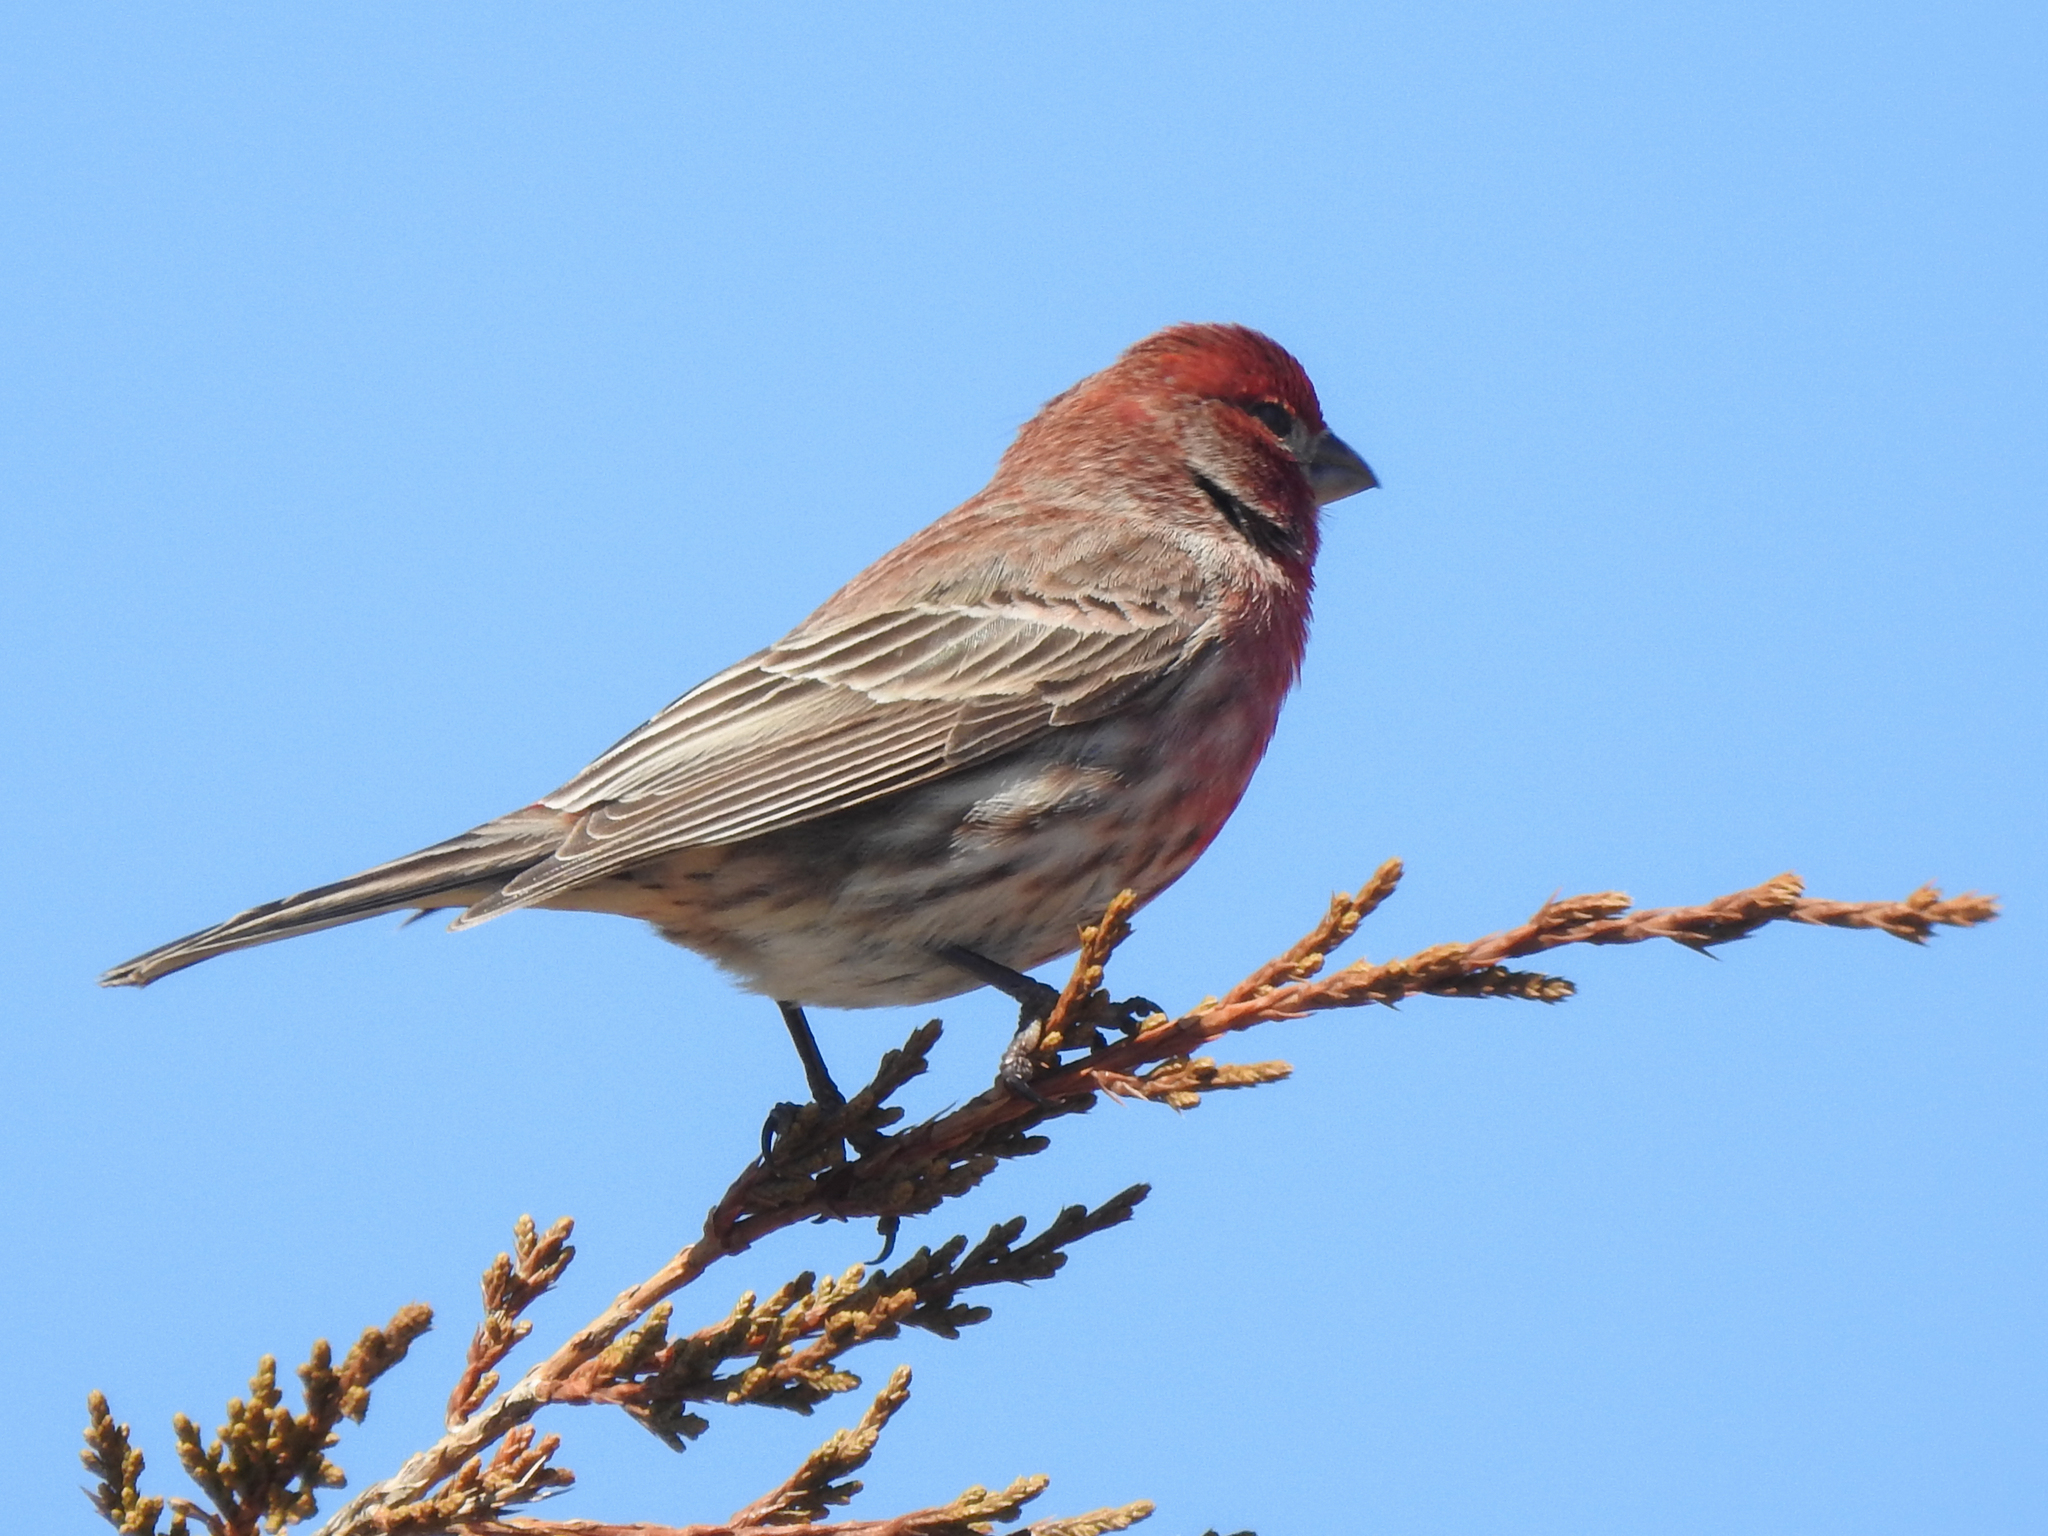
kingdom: Animalia
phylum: Chordata
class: Aves
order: Passeriformes
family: Fringillidae
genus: Haemorhous
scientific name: Haemorhous mexicanus
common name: House finch
